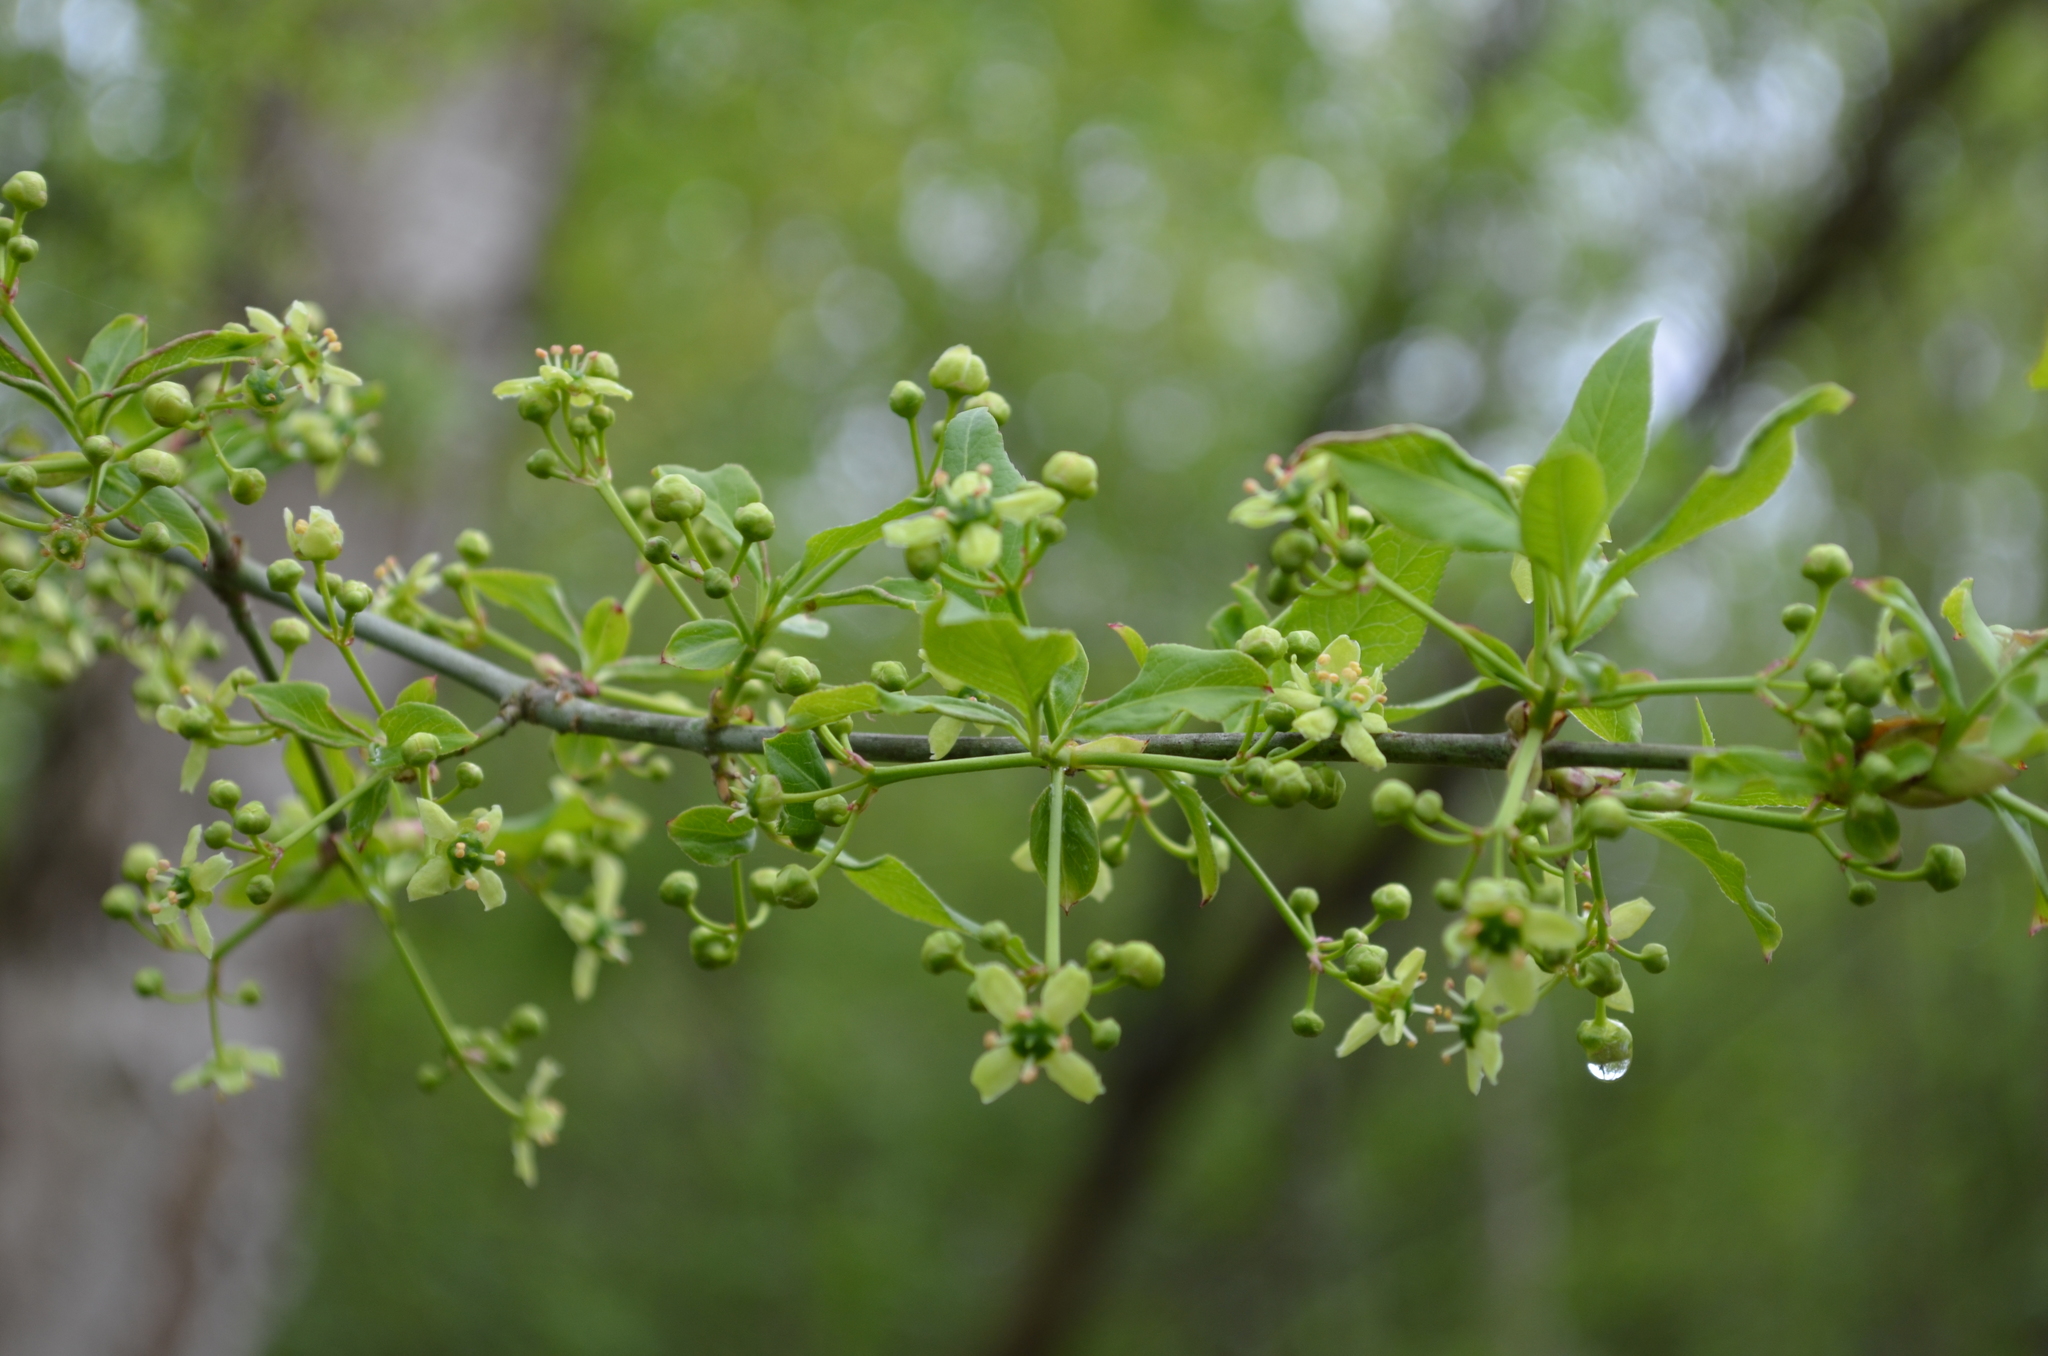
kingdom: Plantae
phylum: Tracheophyta
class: Magnoliopsida
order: Celastrales
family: Celastraceae
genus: Euonymus
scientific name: Euonymus europaeus
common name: Spindle
